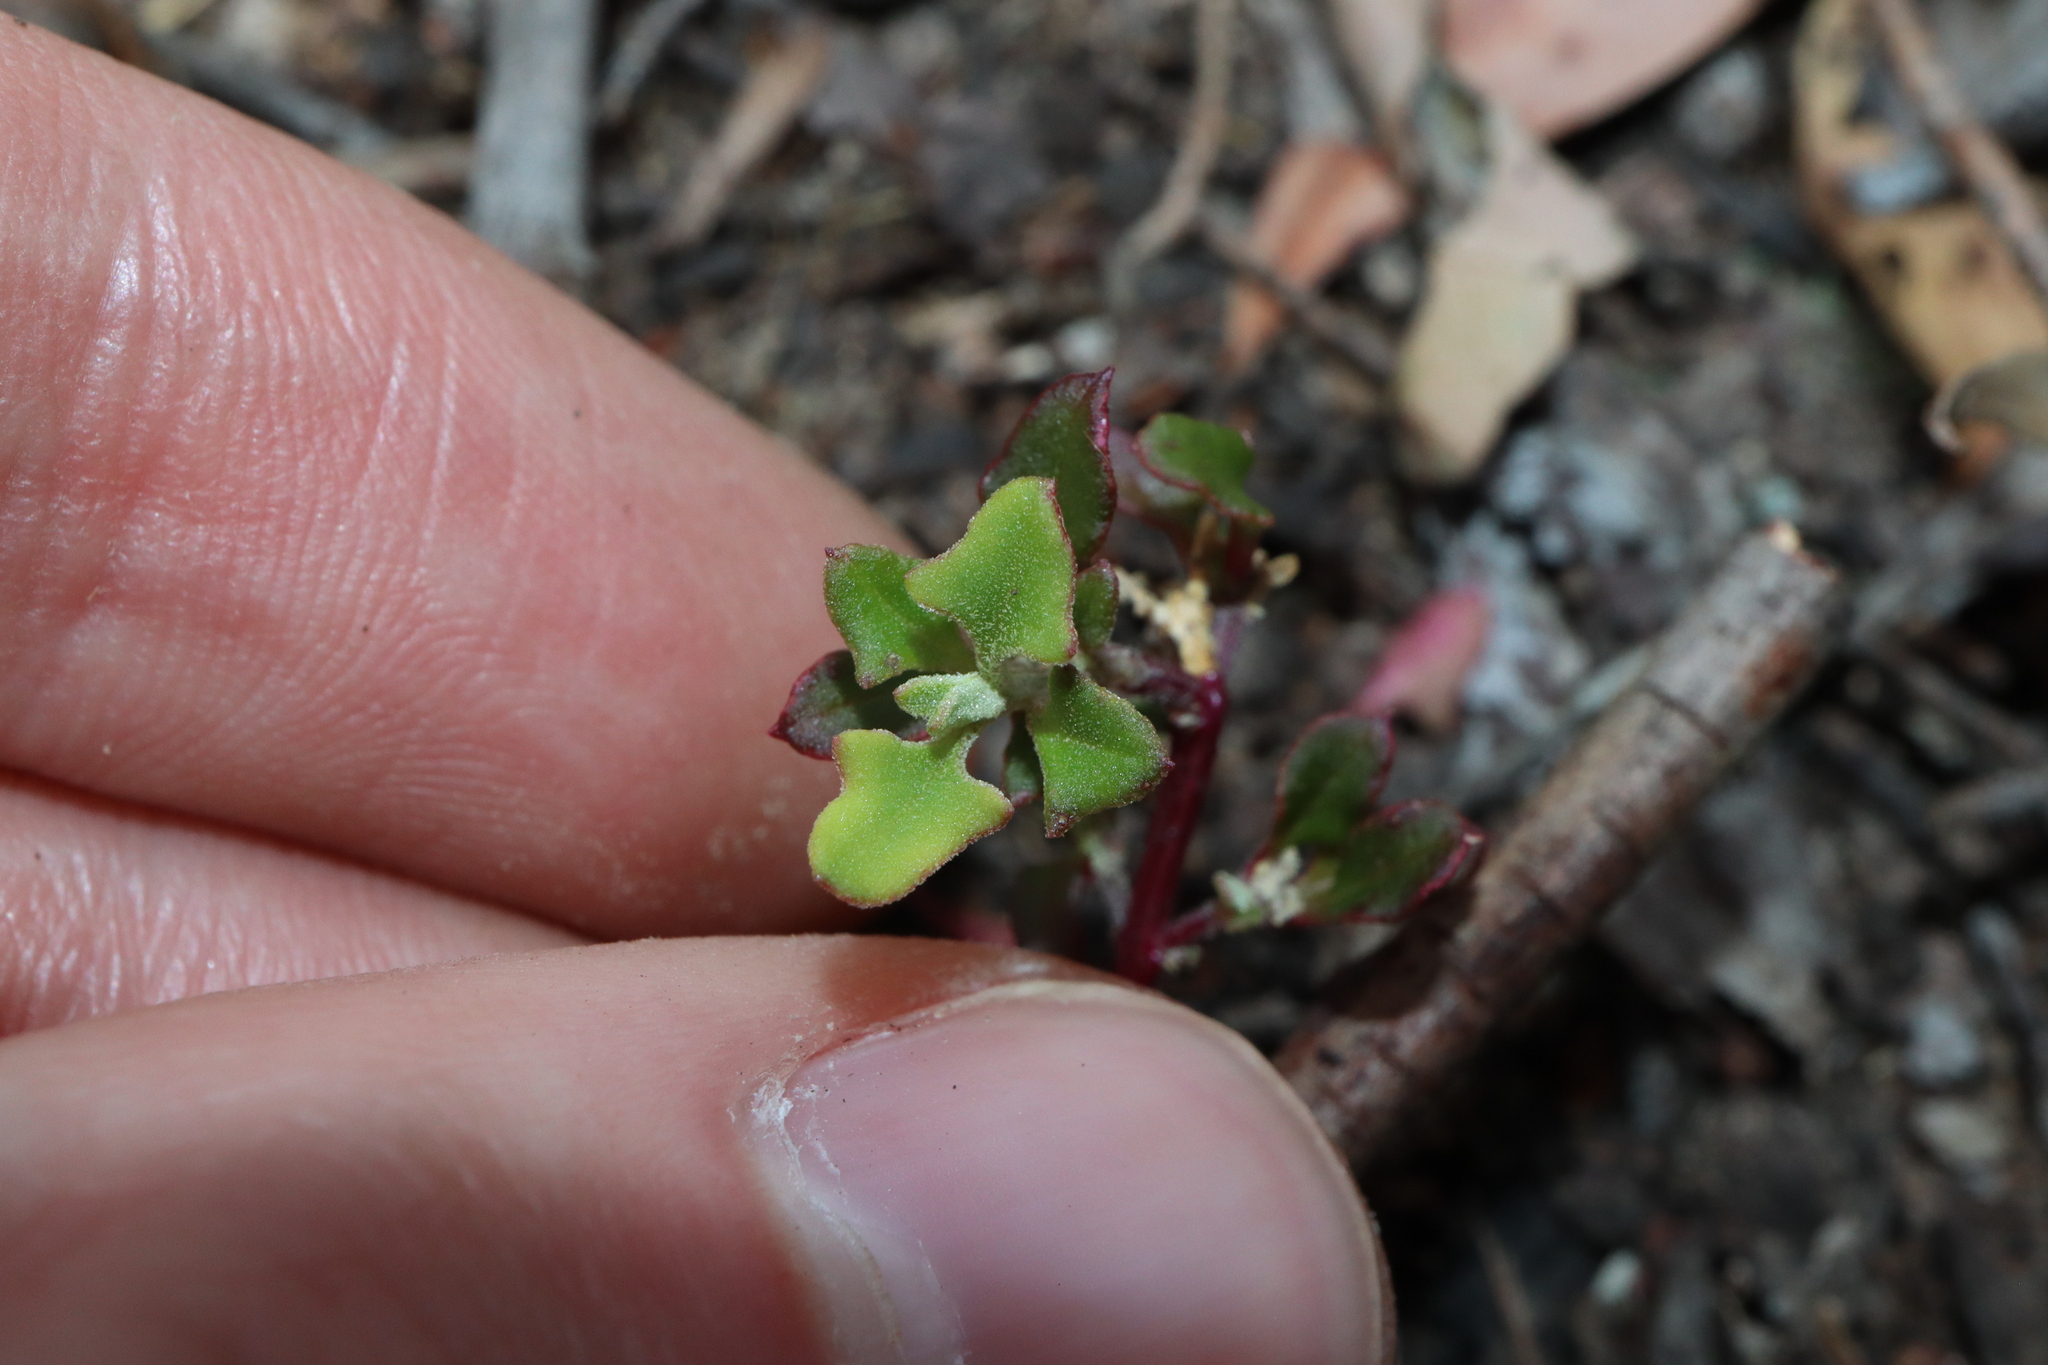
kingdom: Plantae
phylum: Tracheophyta
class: Magnoliopsida
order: Caryophyllales
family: Amaranthaceae
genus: Chenopodium
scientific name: Chenopodium robertianum
